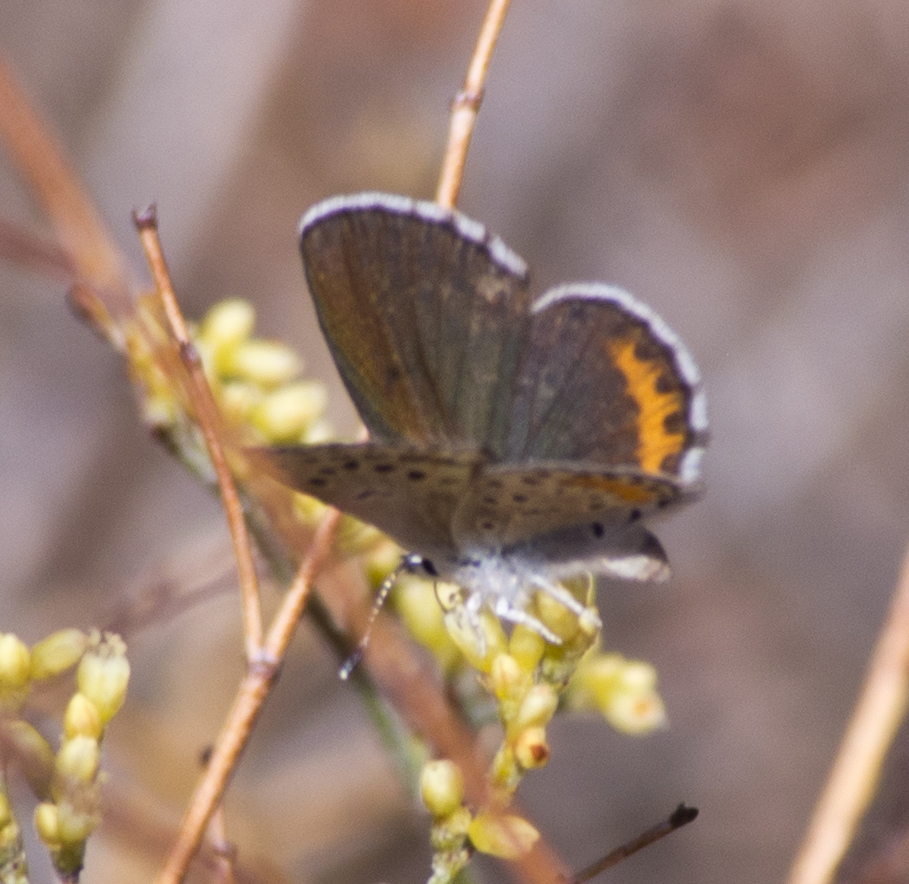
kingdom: Animalia
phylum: Arthropoda
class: Insecta
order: Lepidoptera
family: Lycaenidae
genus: Philotes
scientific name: Philotes pallescens
